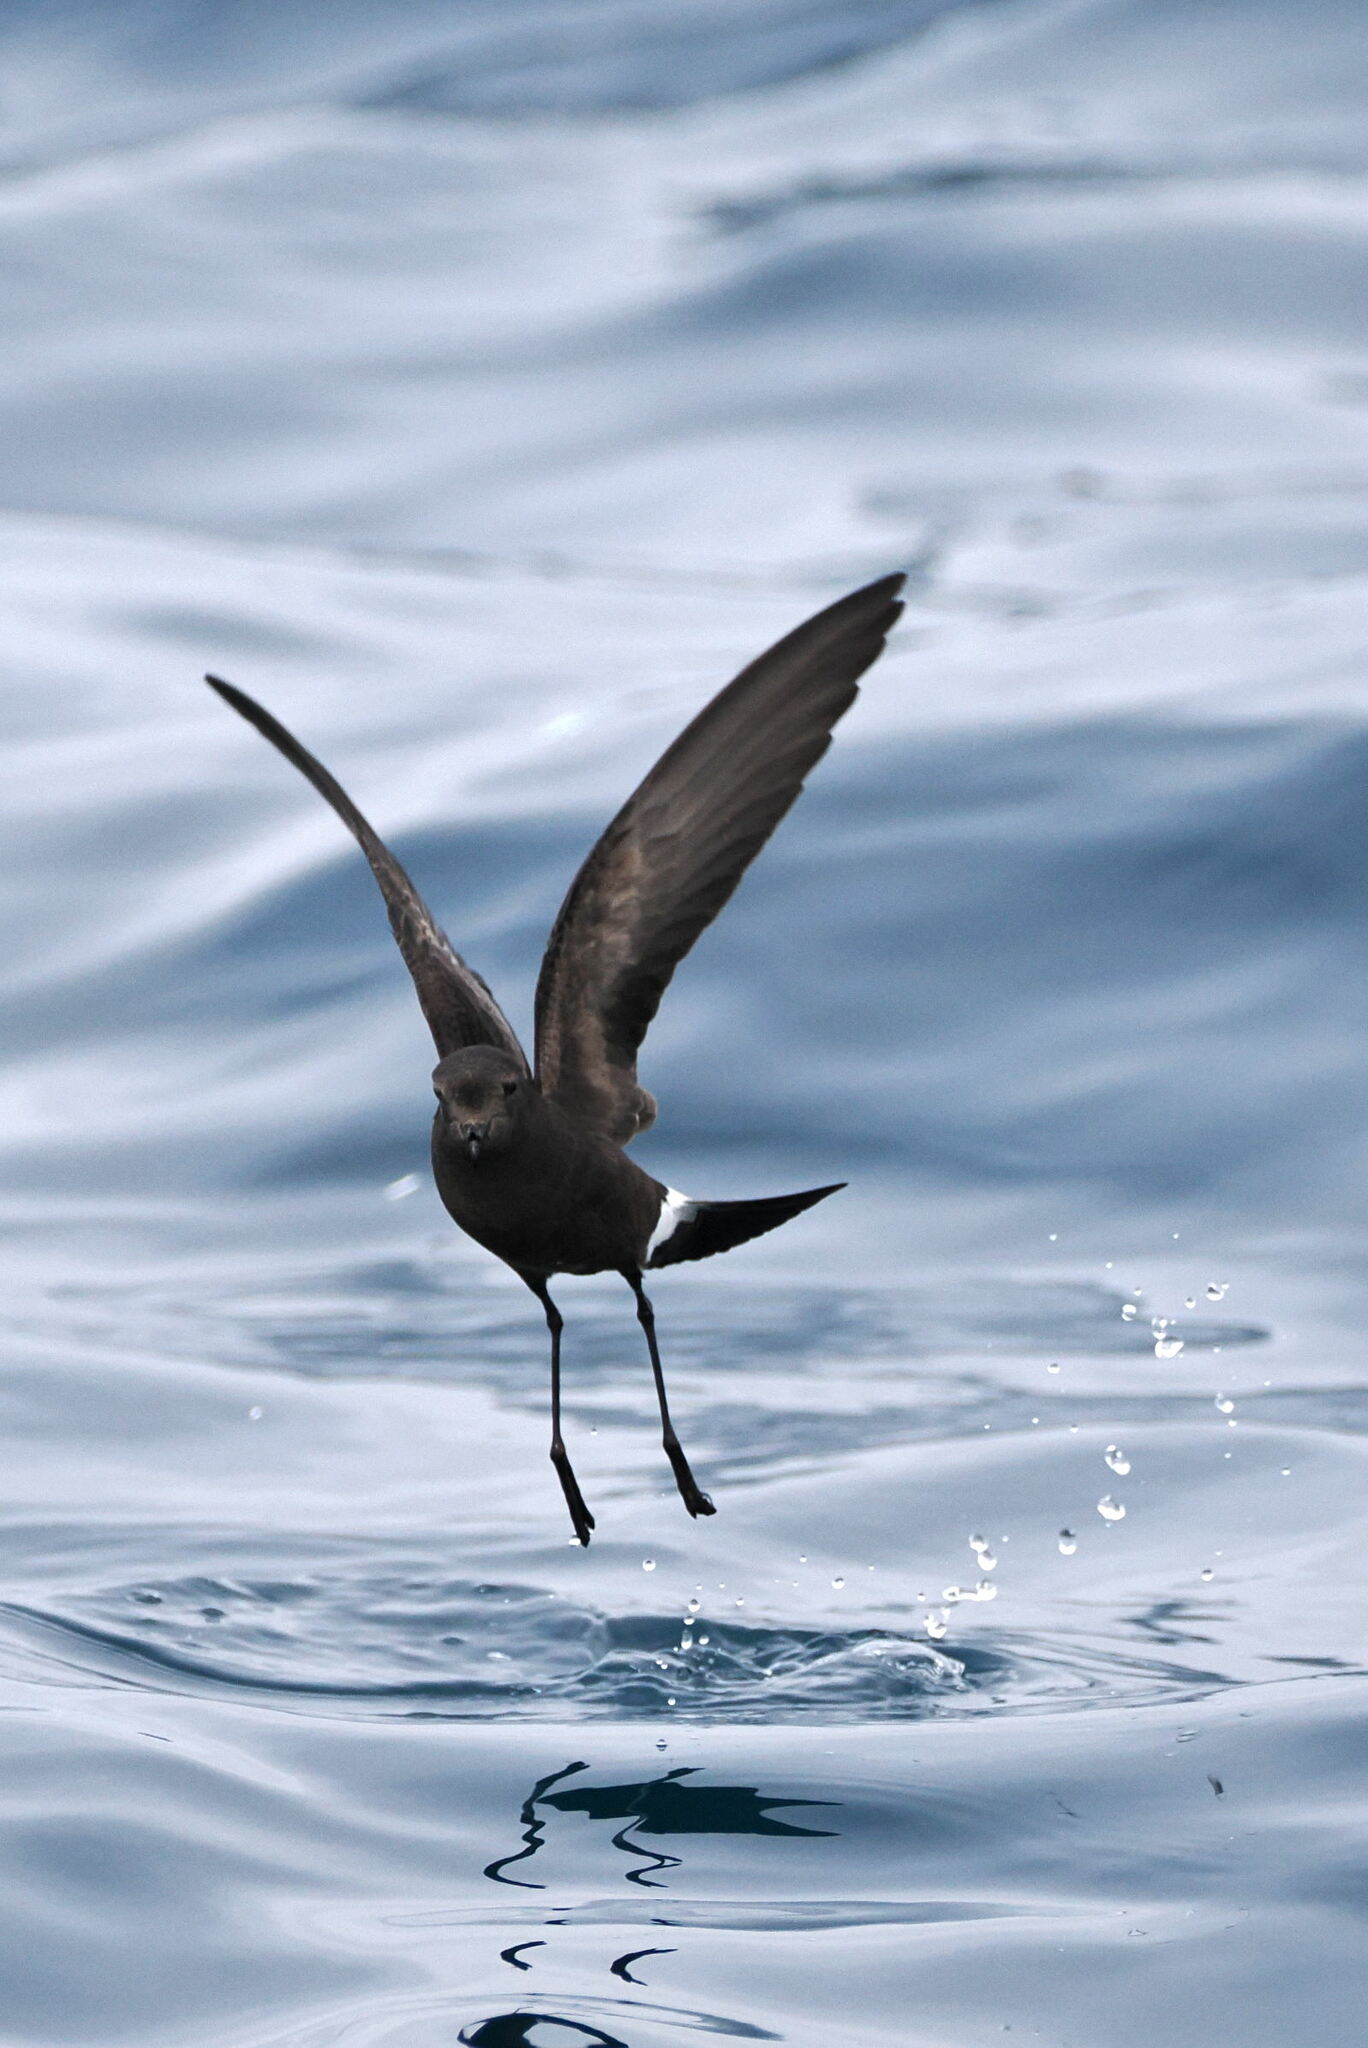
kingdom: Animalia
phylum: Chordata
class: Aves
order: Procellariiformes
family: Hydrobatidae
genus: Oceanites
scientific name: Oceanites oceanicus
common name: Wilson's storm petrel
